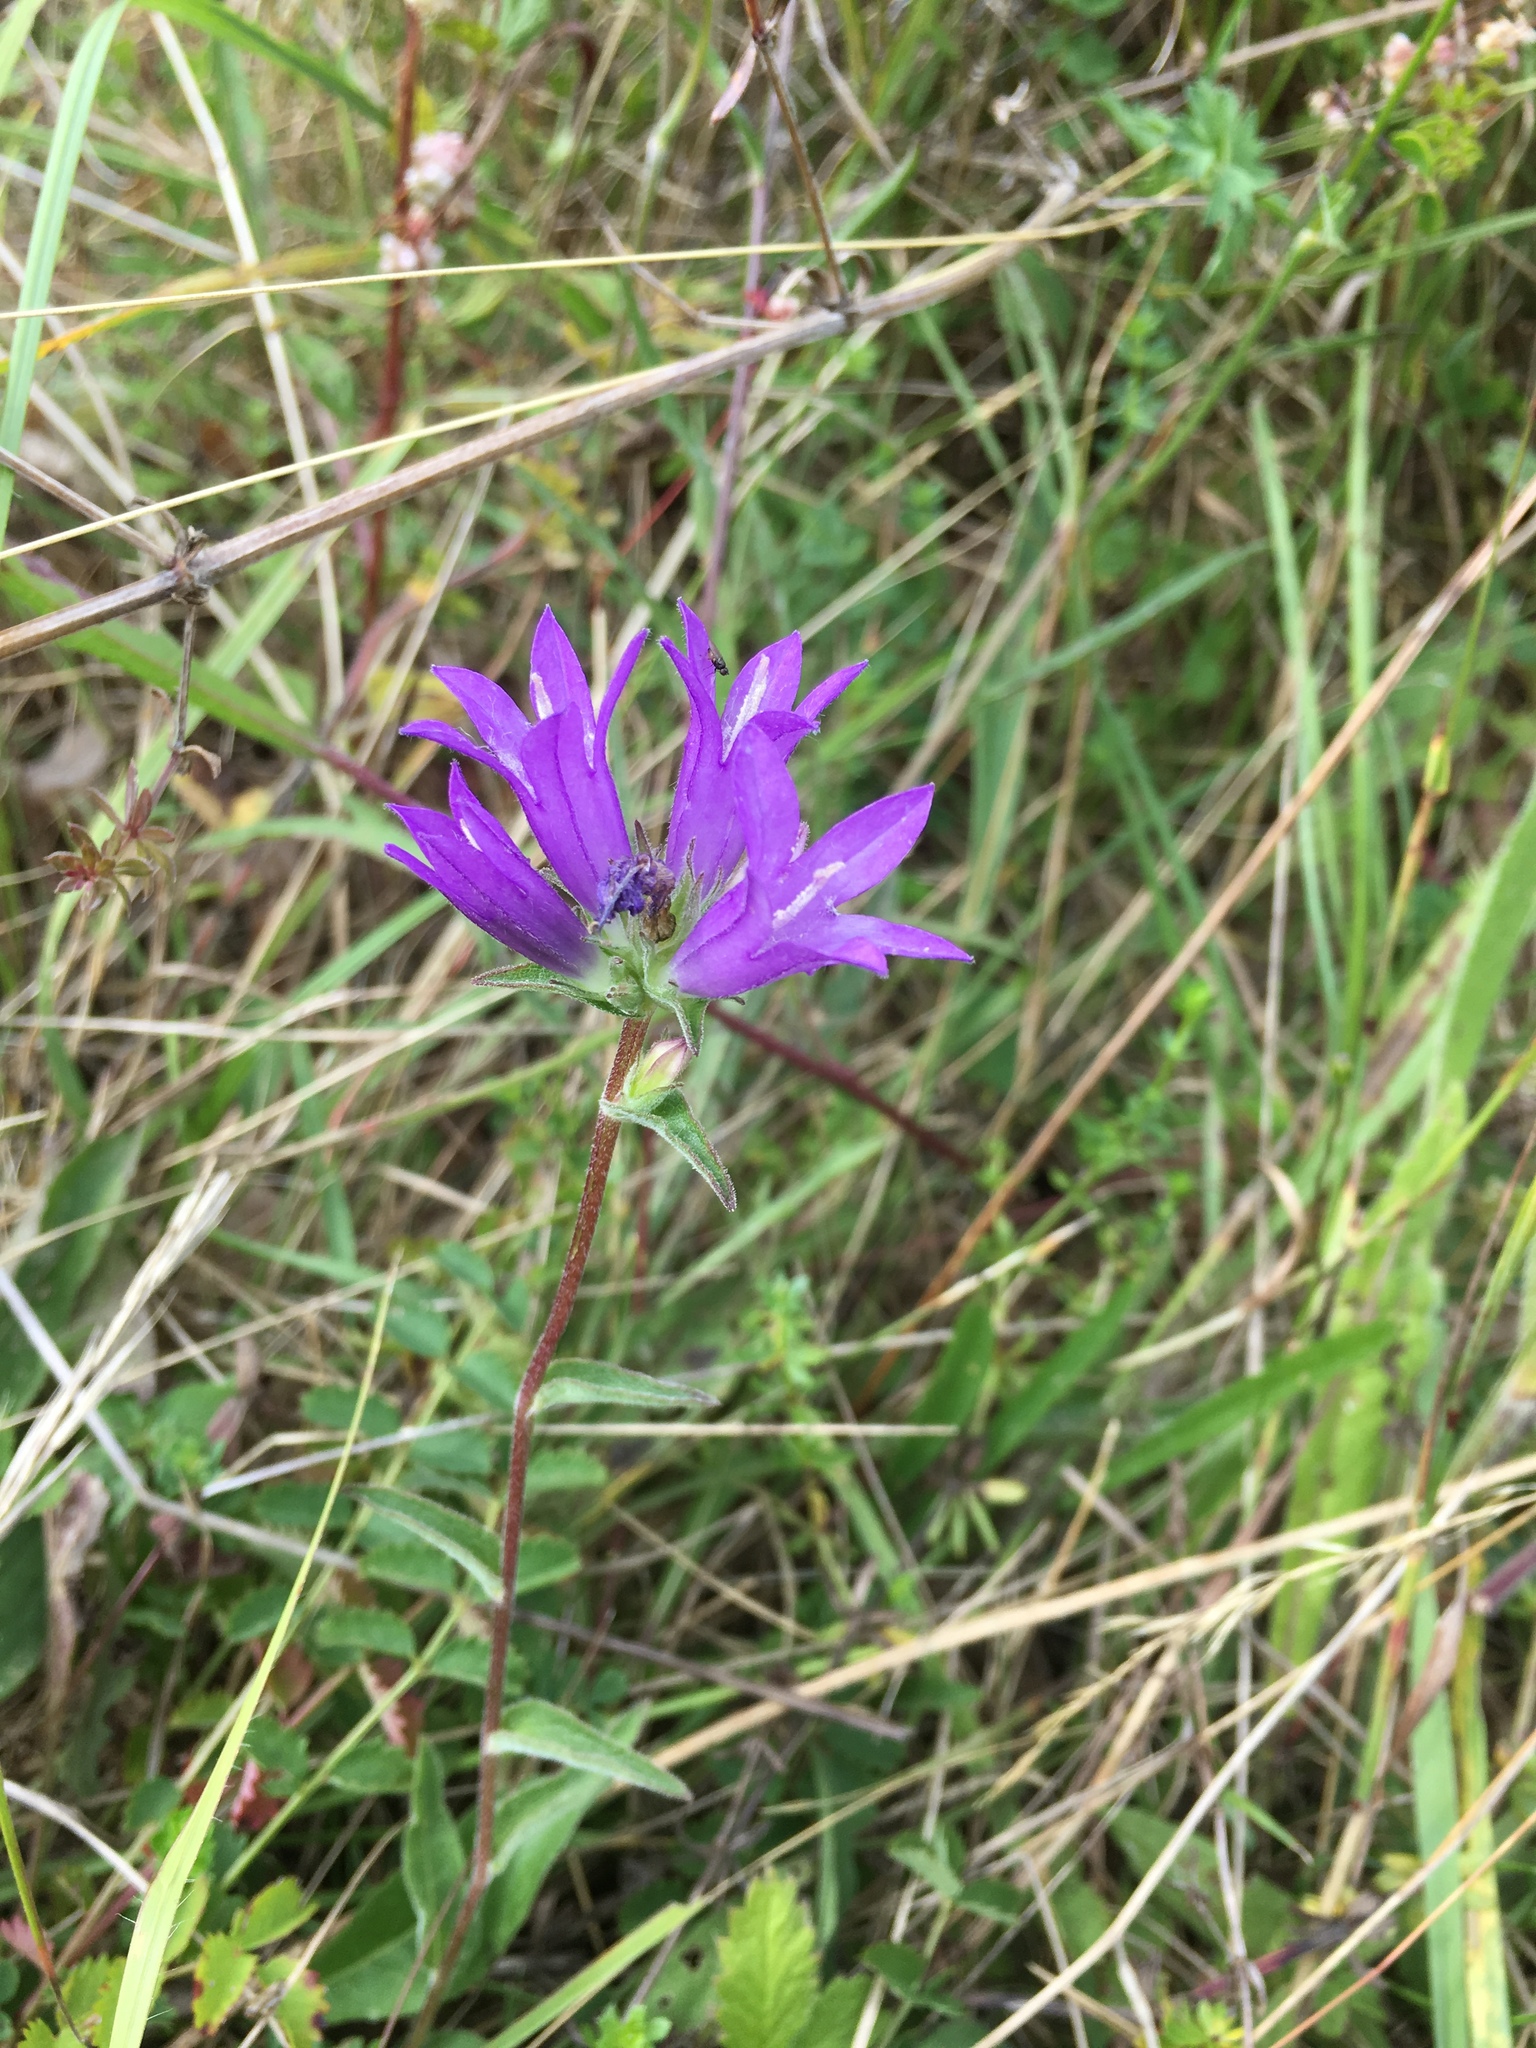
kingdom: Plantae
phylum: Tracheophyta
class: Magnoliopsida
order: Asterales
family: Campanulaceae
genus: Campanula
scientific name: Campanula glomerata
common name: Clustered bellflower
